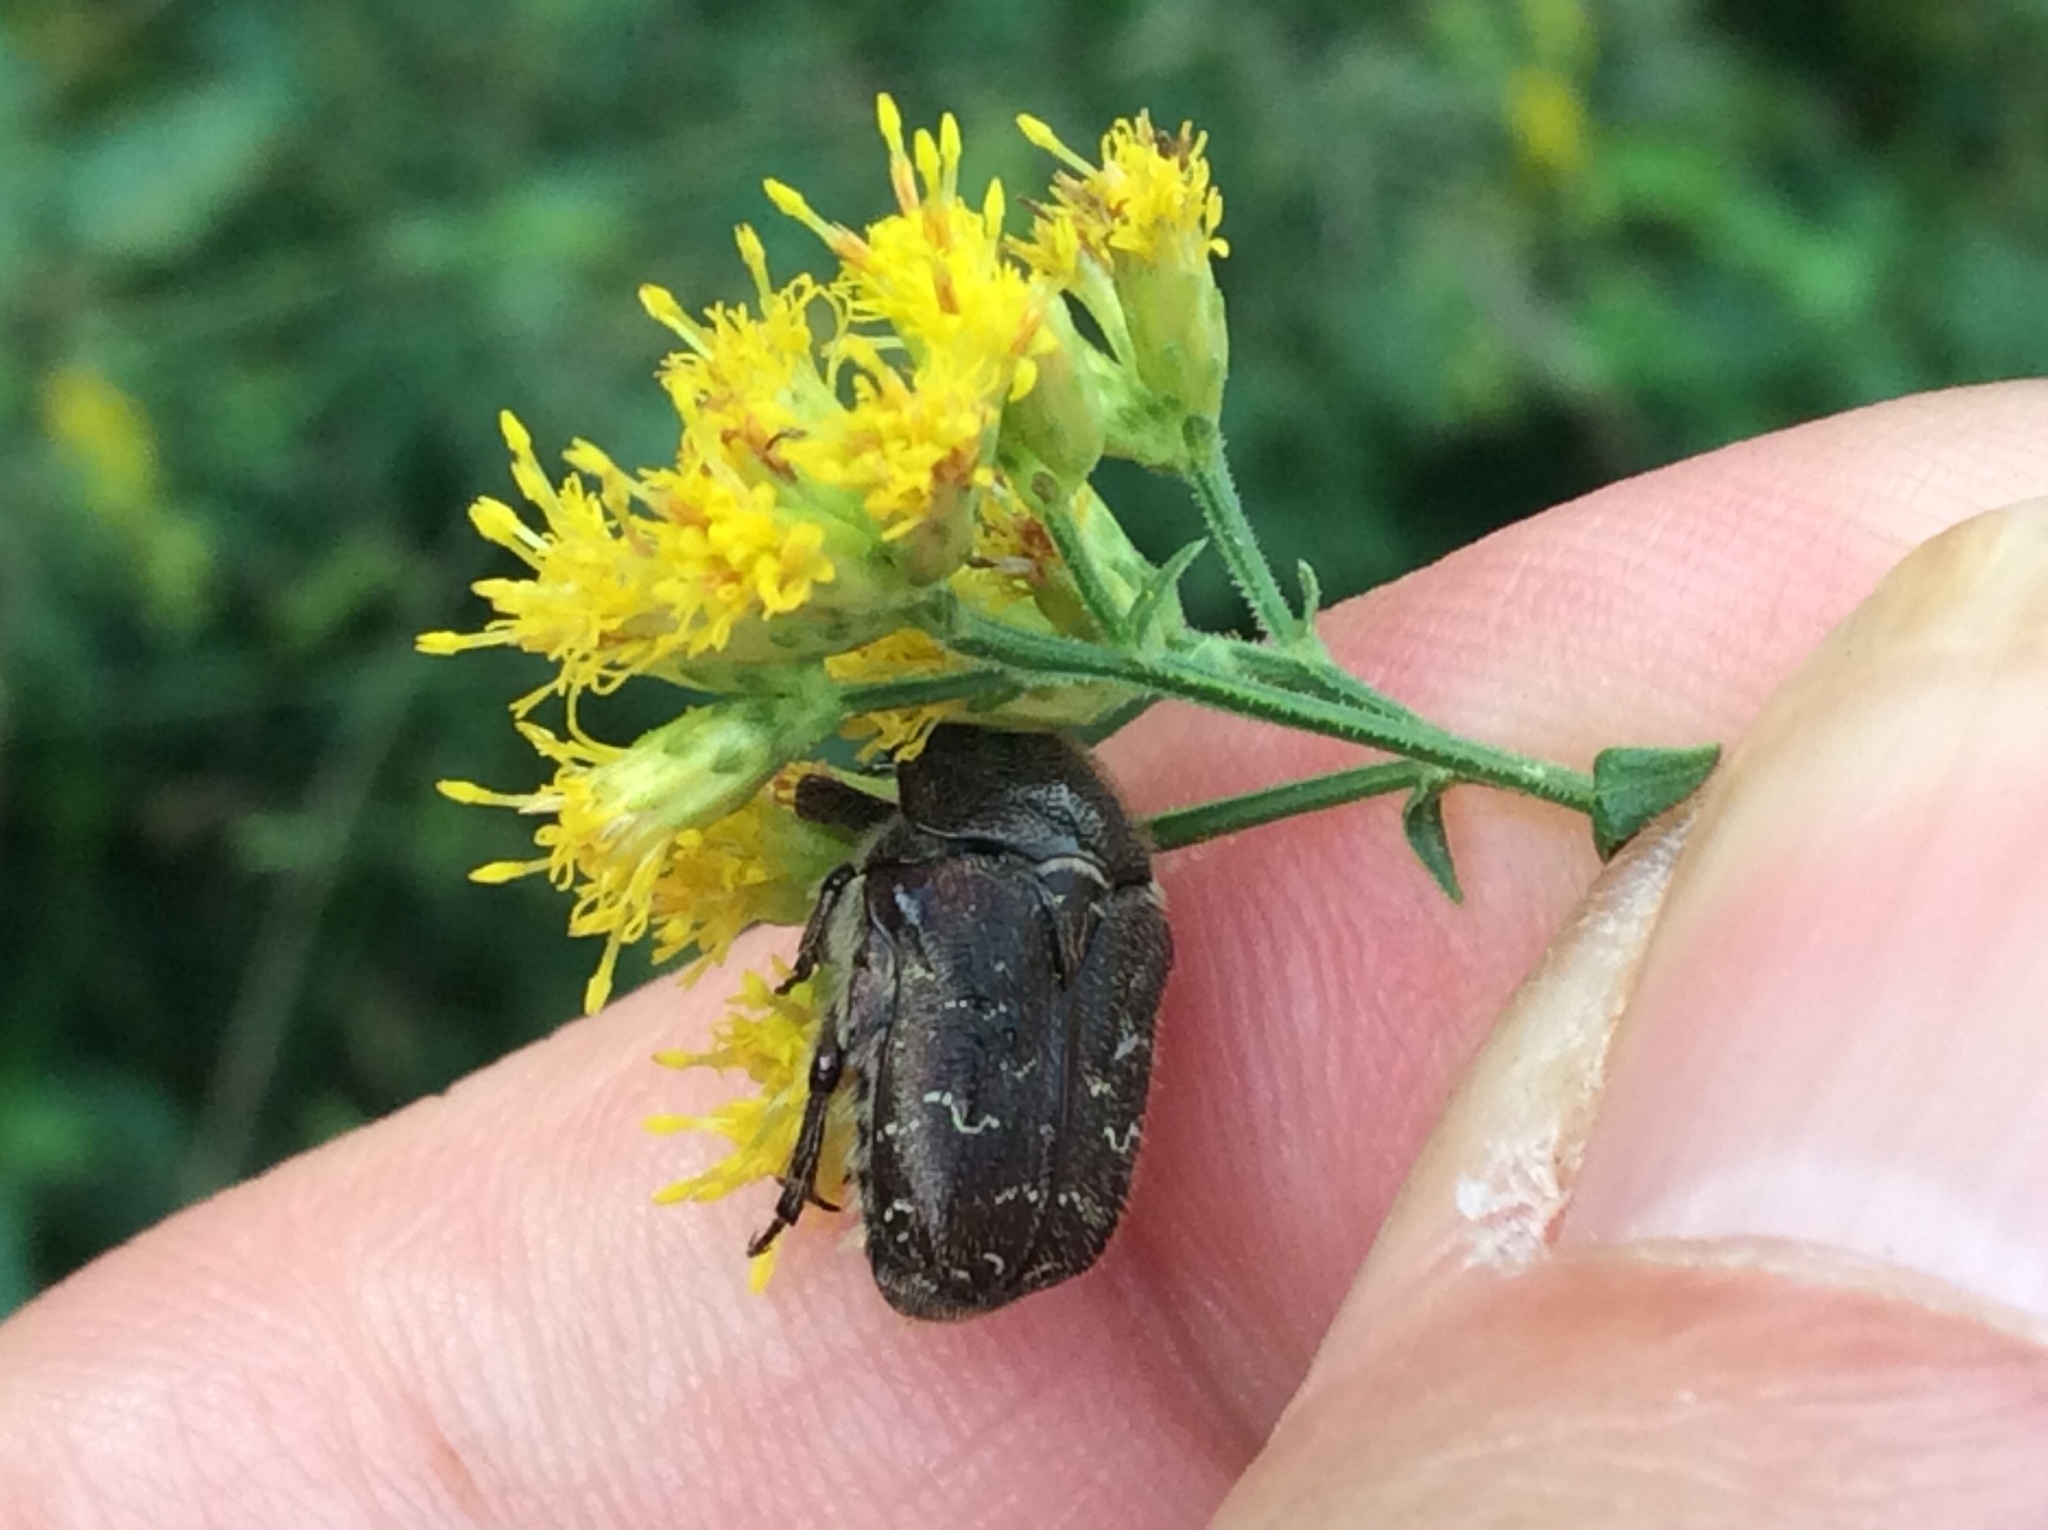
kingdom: Animalia
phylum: Arthropoda
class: Insecta
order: Coleoptera
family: Scarabaeidae
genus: Euphoria
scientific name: Euphoria sepulcralis
